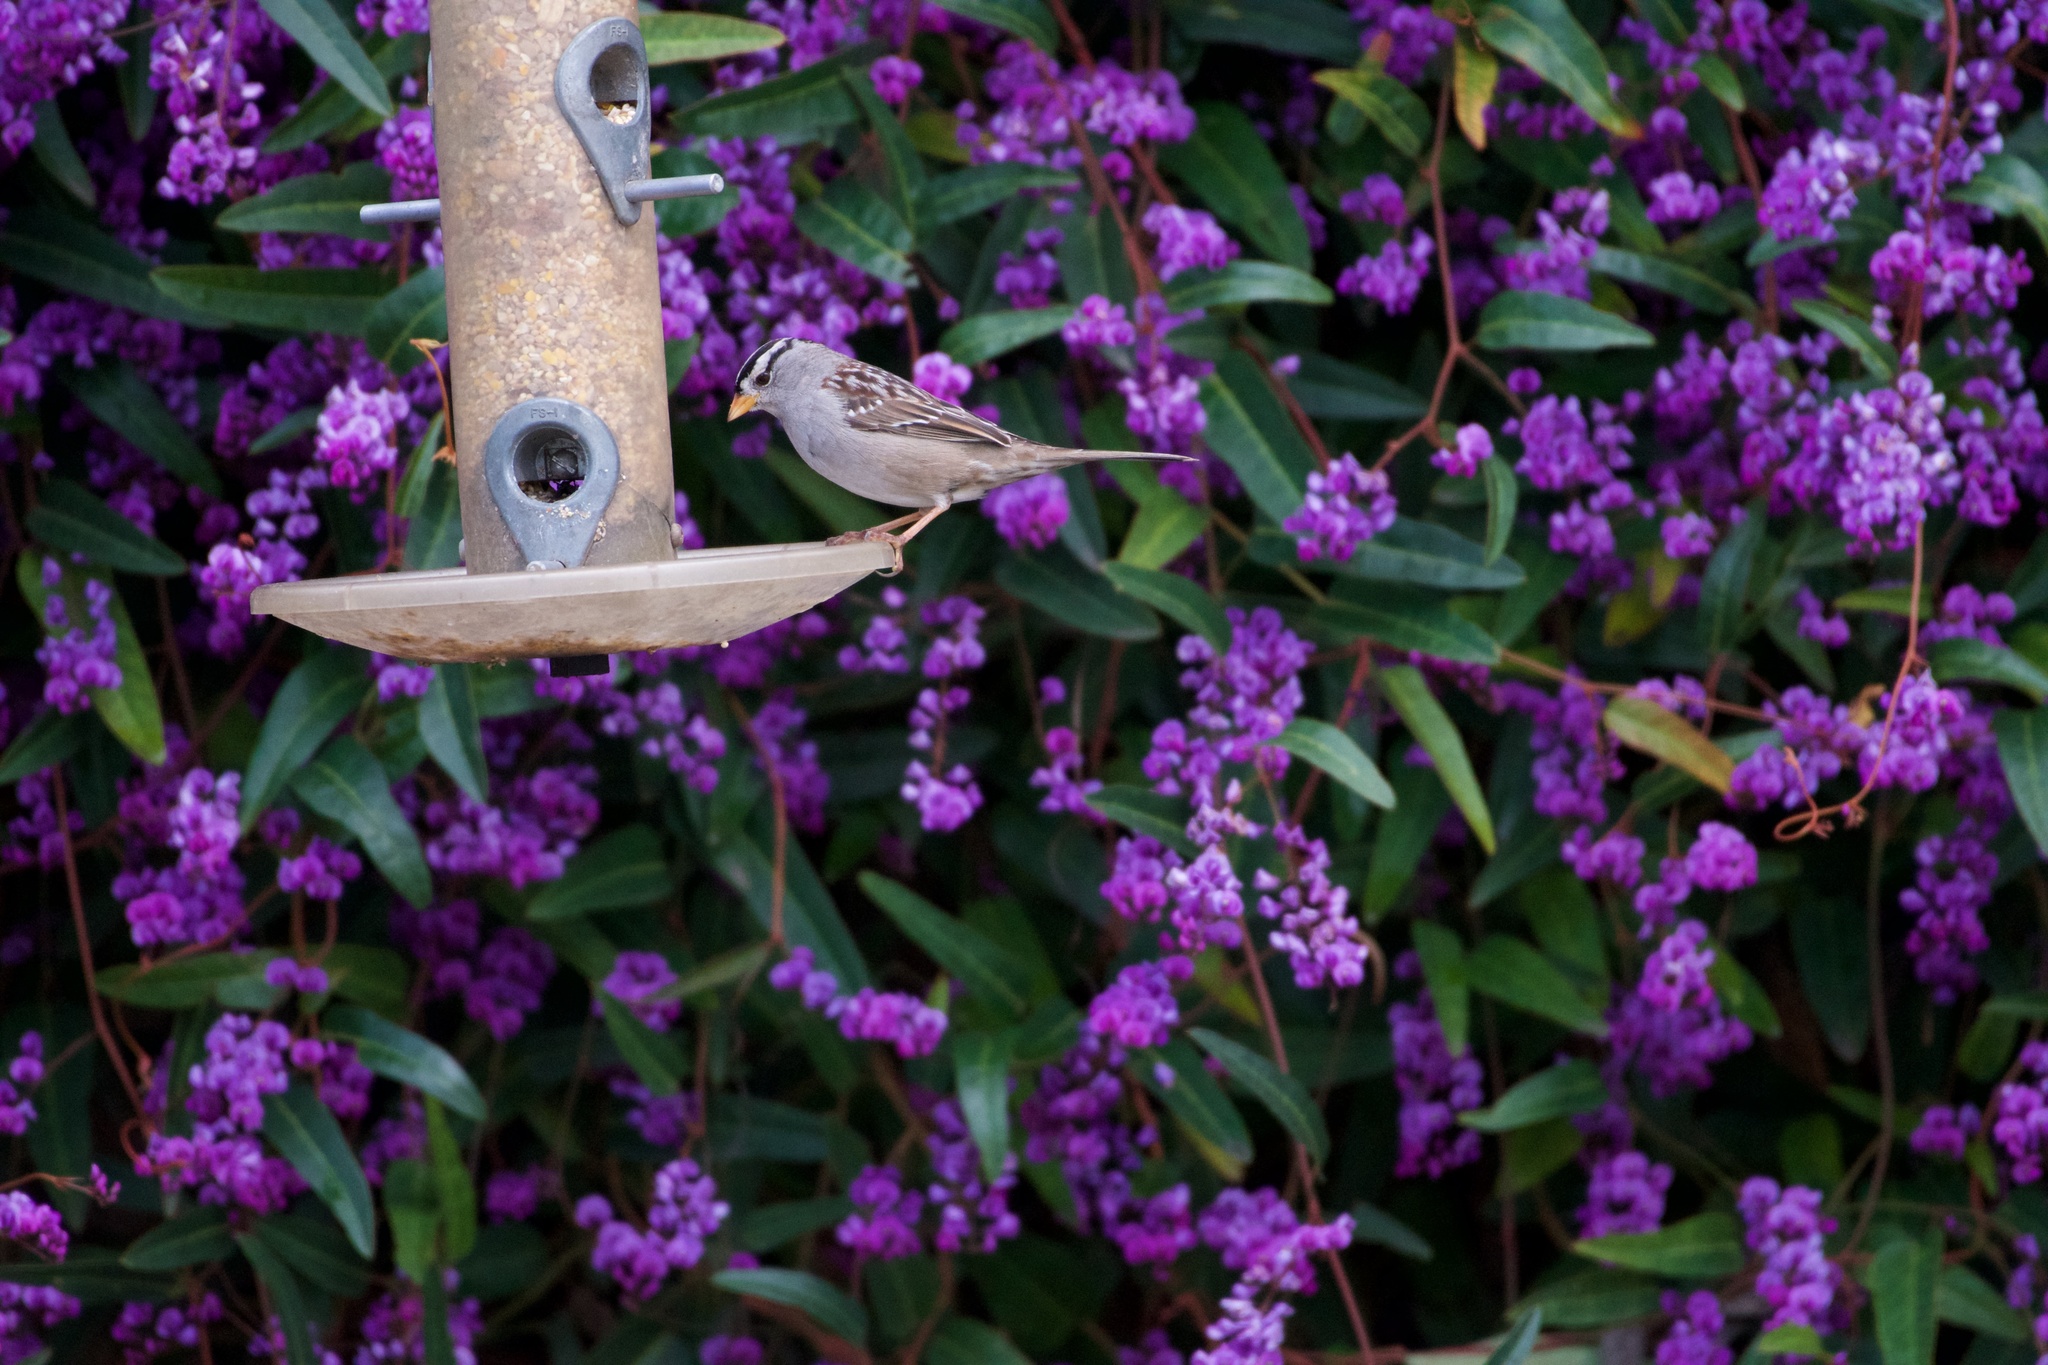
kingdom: Animalia
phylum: Chordata
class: Aves
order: Passeriformes
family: Passerellidae
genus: Zonotrichia
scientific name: Zonotrichia leucophrys
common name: White-crowned sparrow
